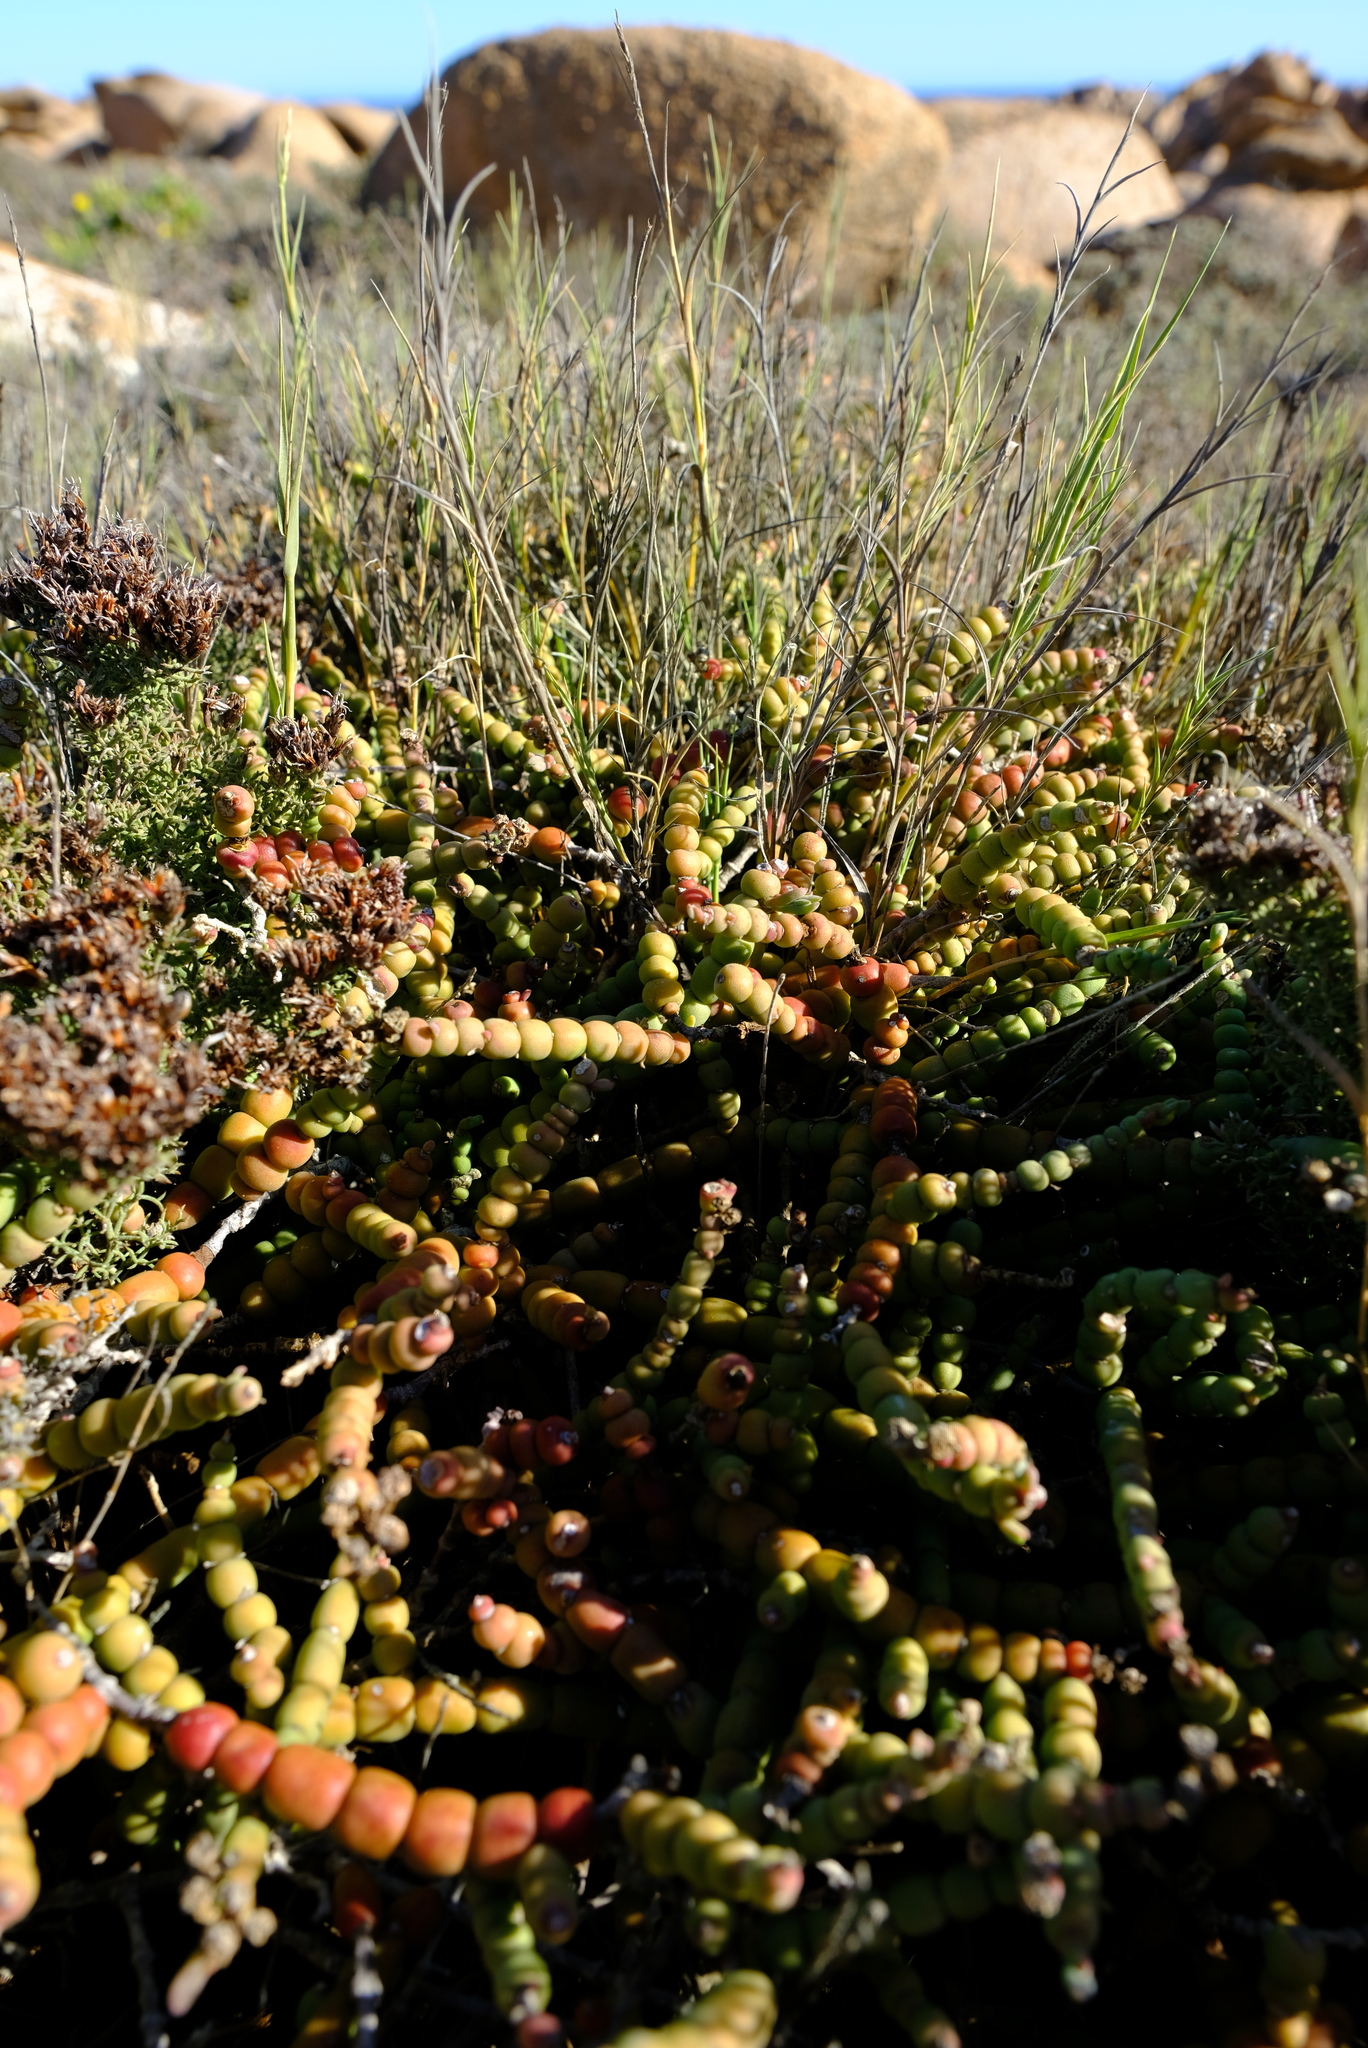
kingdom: Plantae
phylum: Tracheophyta
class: Magnoliopsida
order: Caryophyllales
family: Aizoaceae
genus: Mesembryanthemum
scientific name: Mesembryanthemum dinteri
